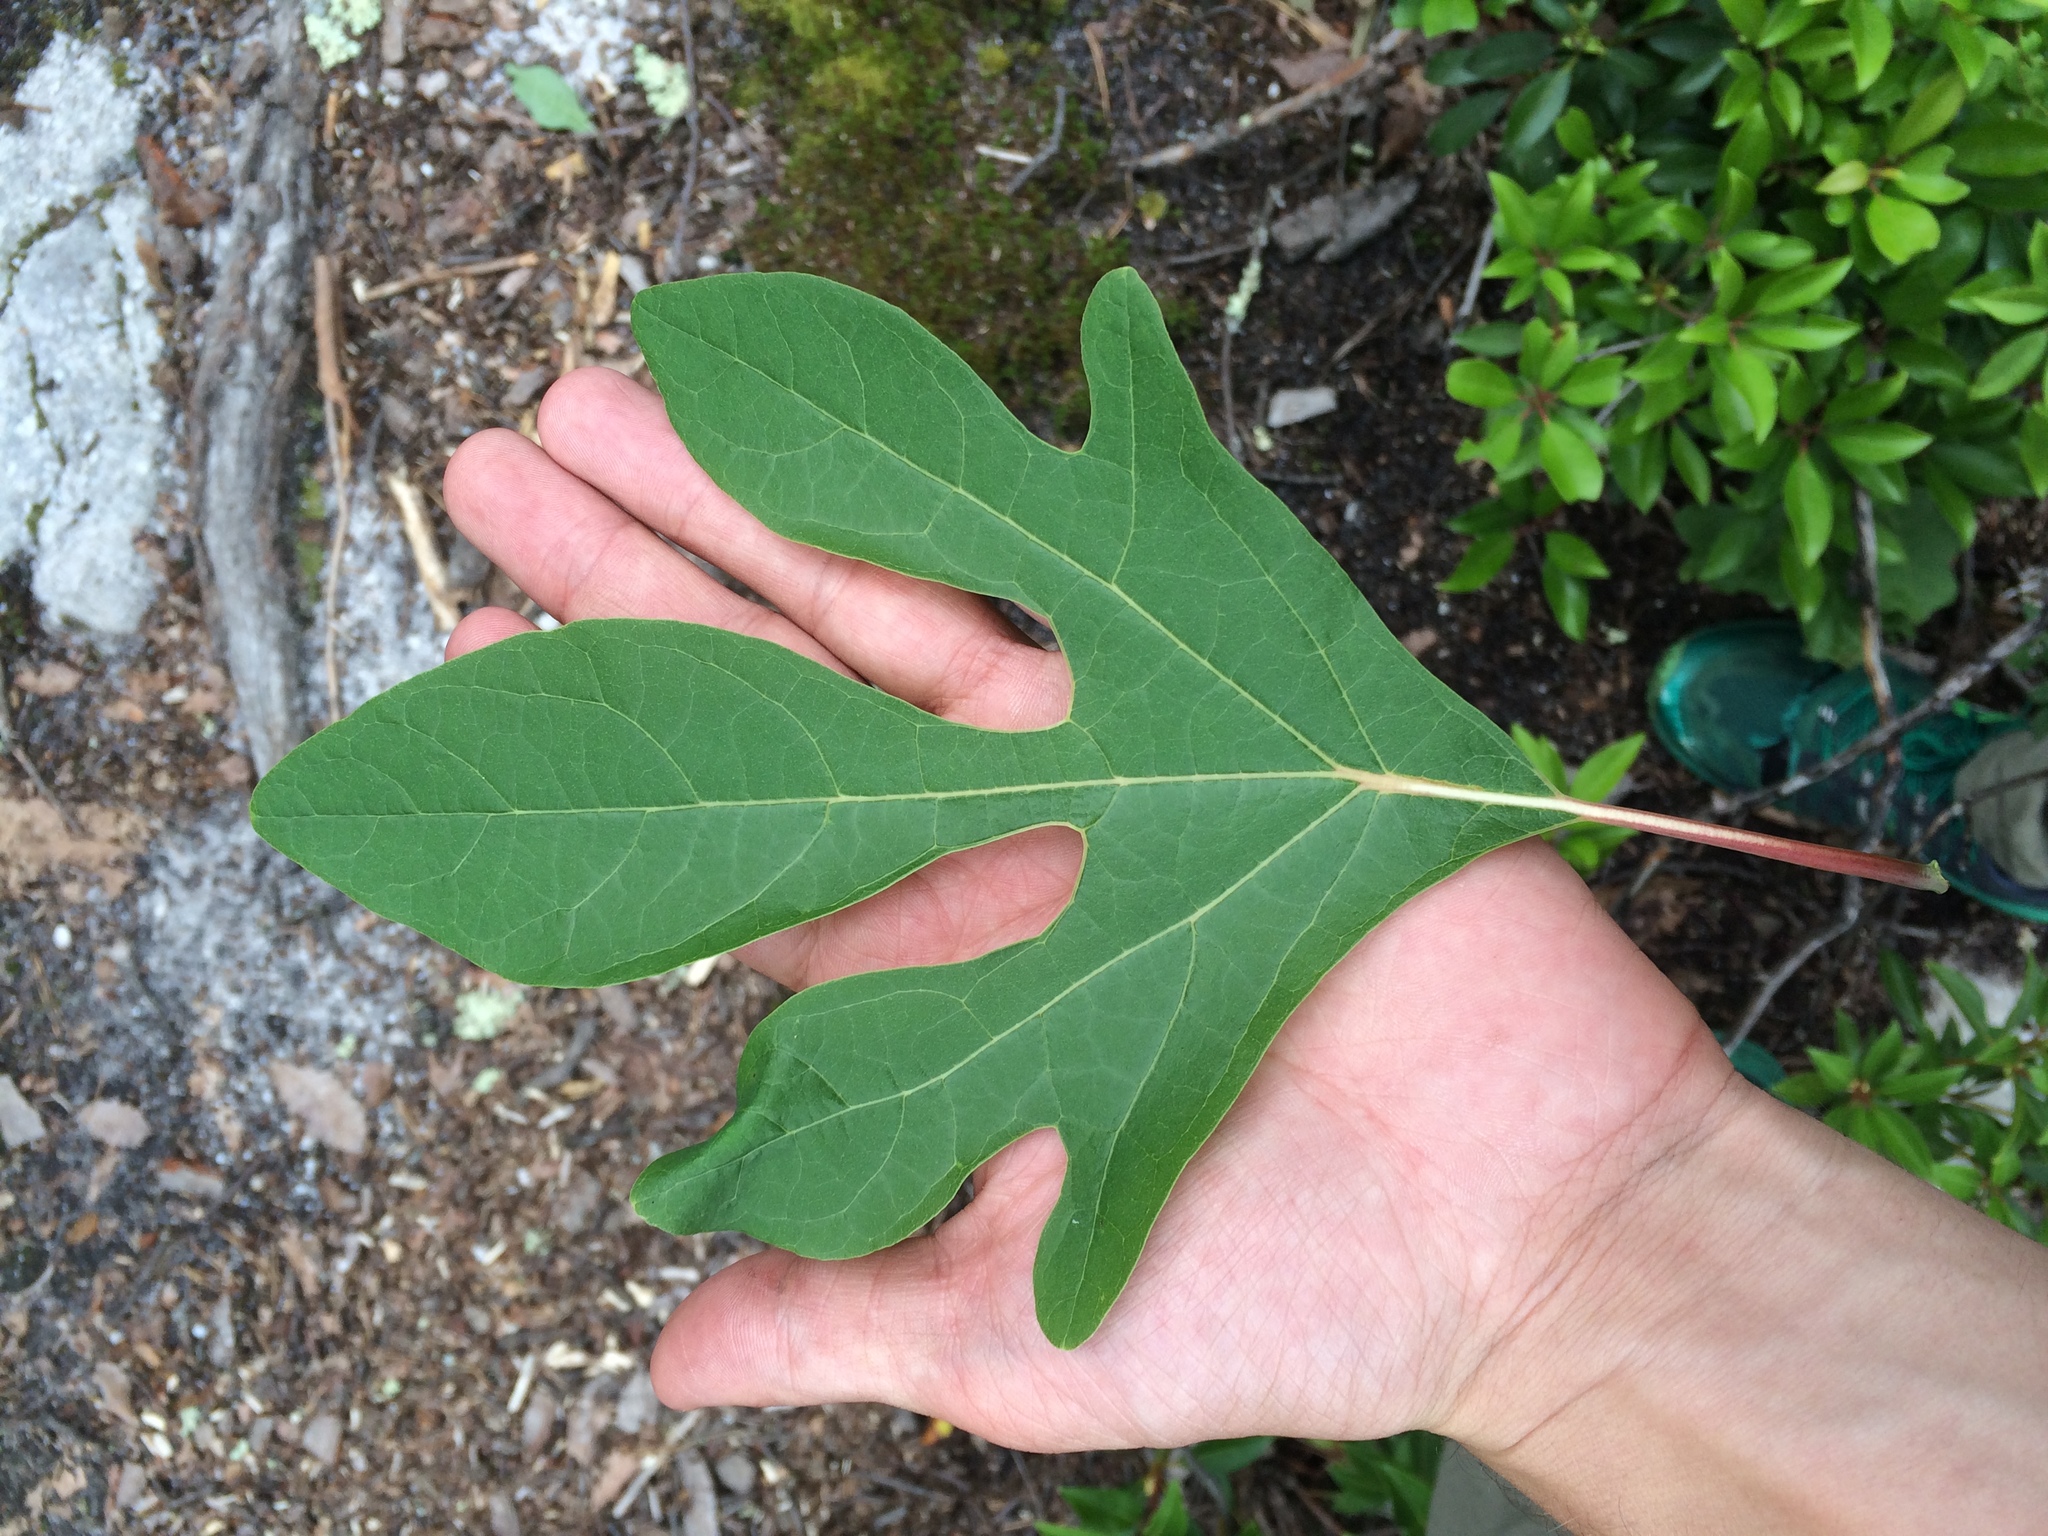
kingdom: Plantae
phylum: Tracheophyta
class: Magnoliopsida
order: Laurales
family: Lauraceae
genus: Sassafras
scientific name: Sassafras albidum
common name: Sassafras
